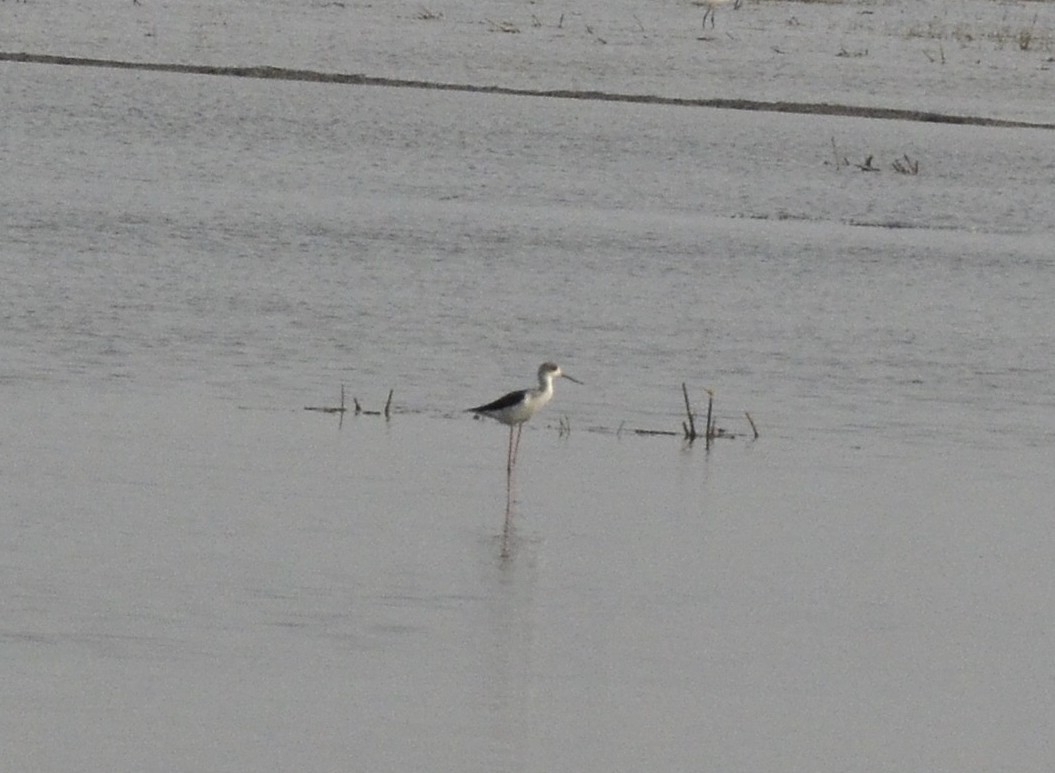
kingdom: Animalia
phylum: Chordata
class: Aves
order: Charadriiformes
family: Recurvirostridae
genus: Himantopus
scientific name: Himantopus himantopus
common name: Black-winged stilt
